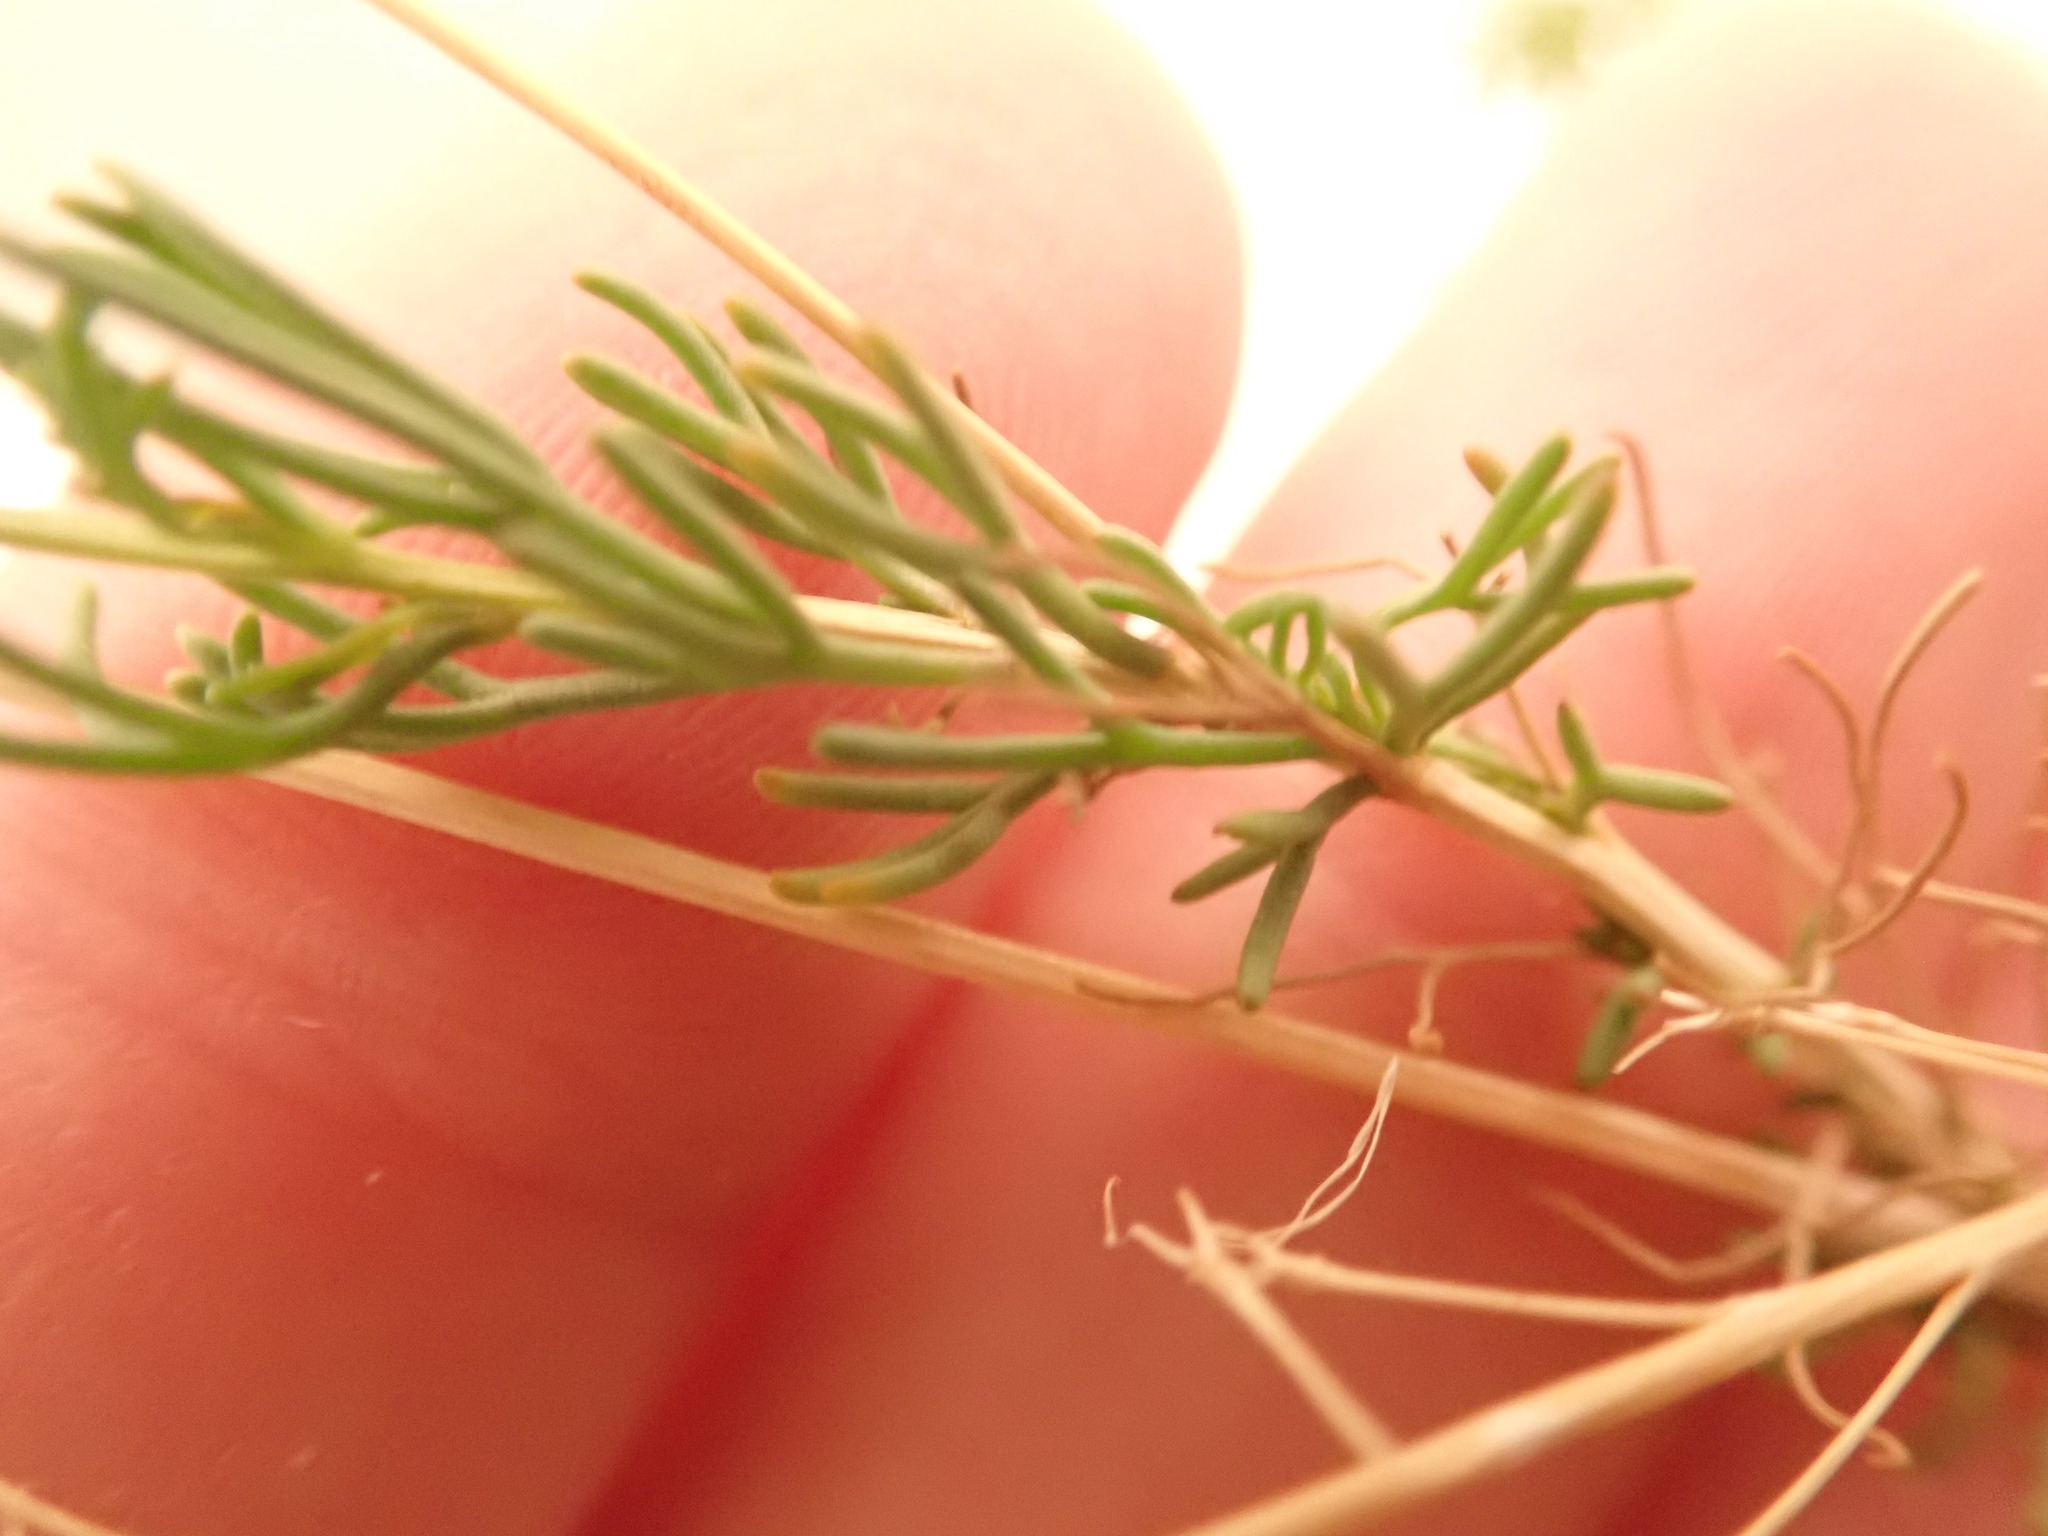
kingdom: Plantae
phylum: Tracheophyta
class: Magnoliopsida
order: Brassicales
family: Brassicaceae
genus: Arabidella
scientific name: Arabidella trisecta
